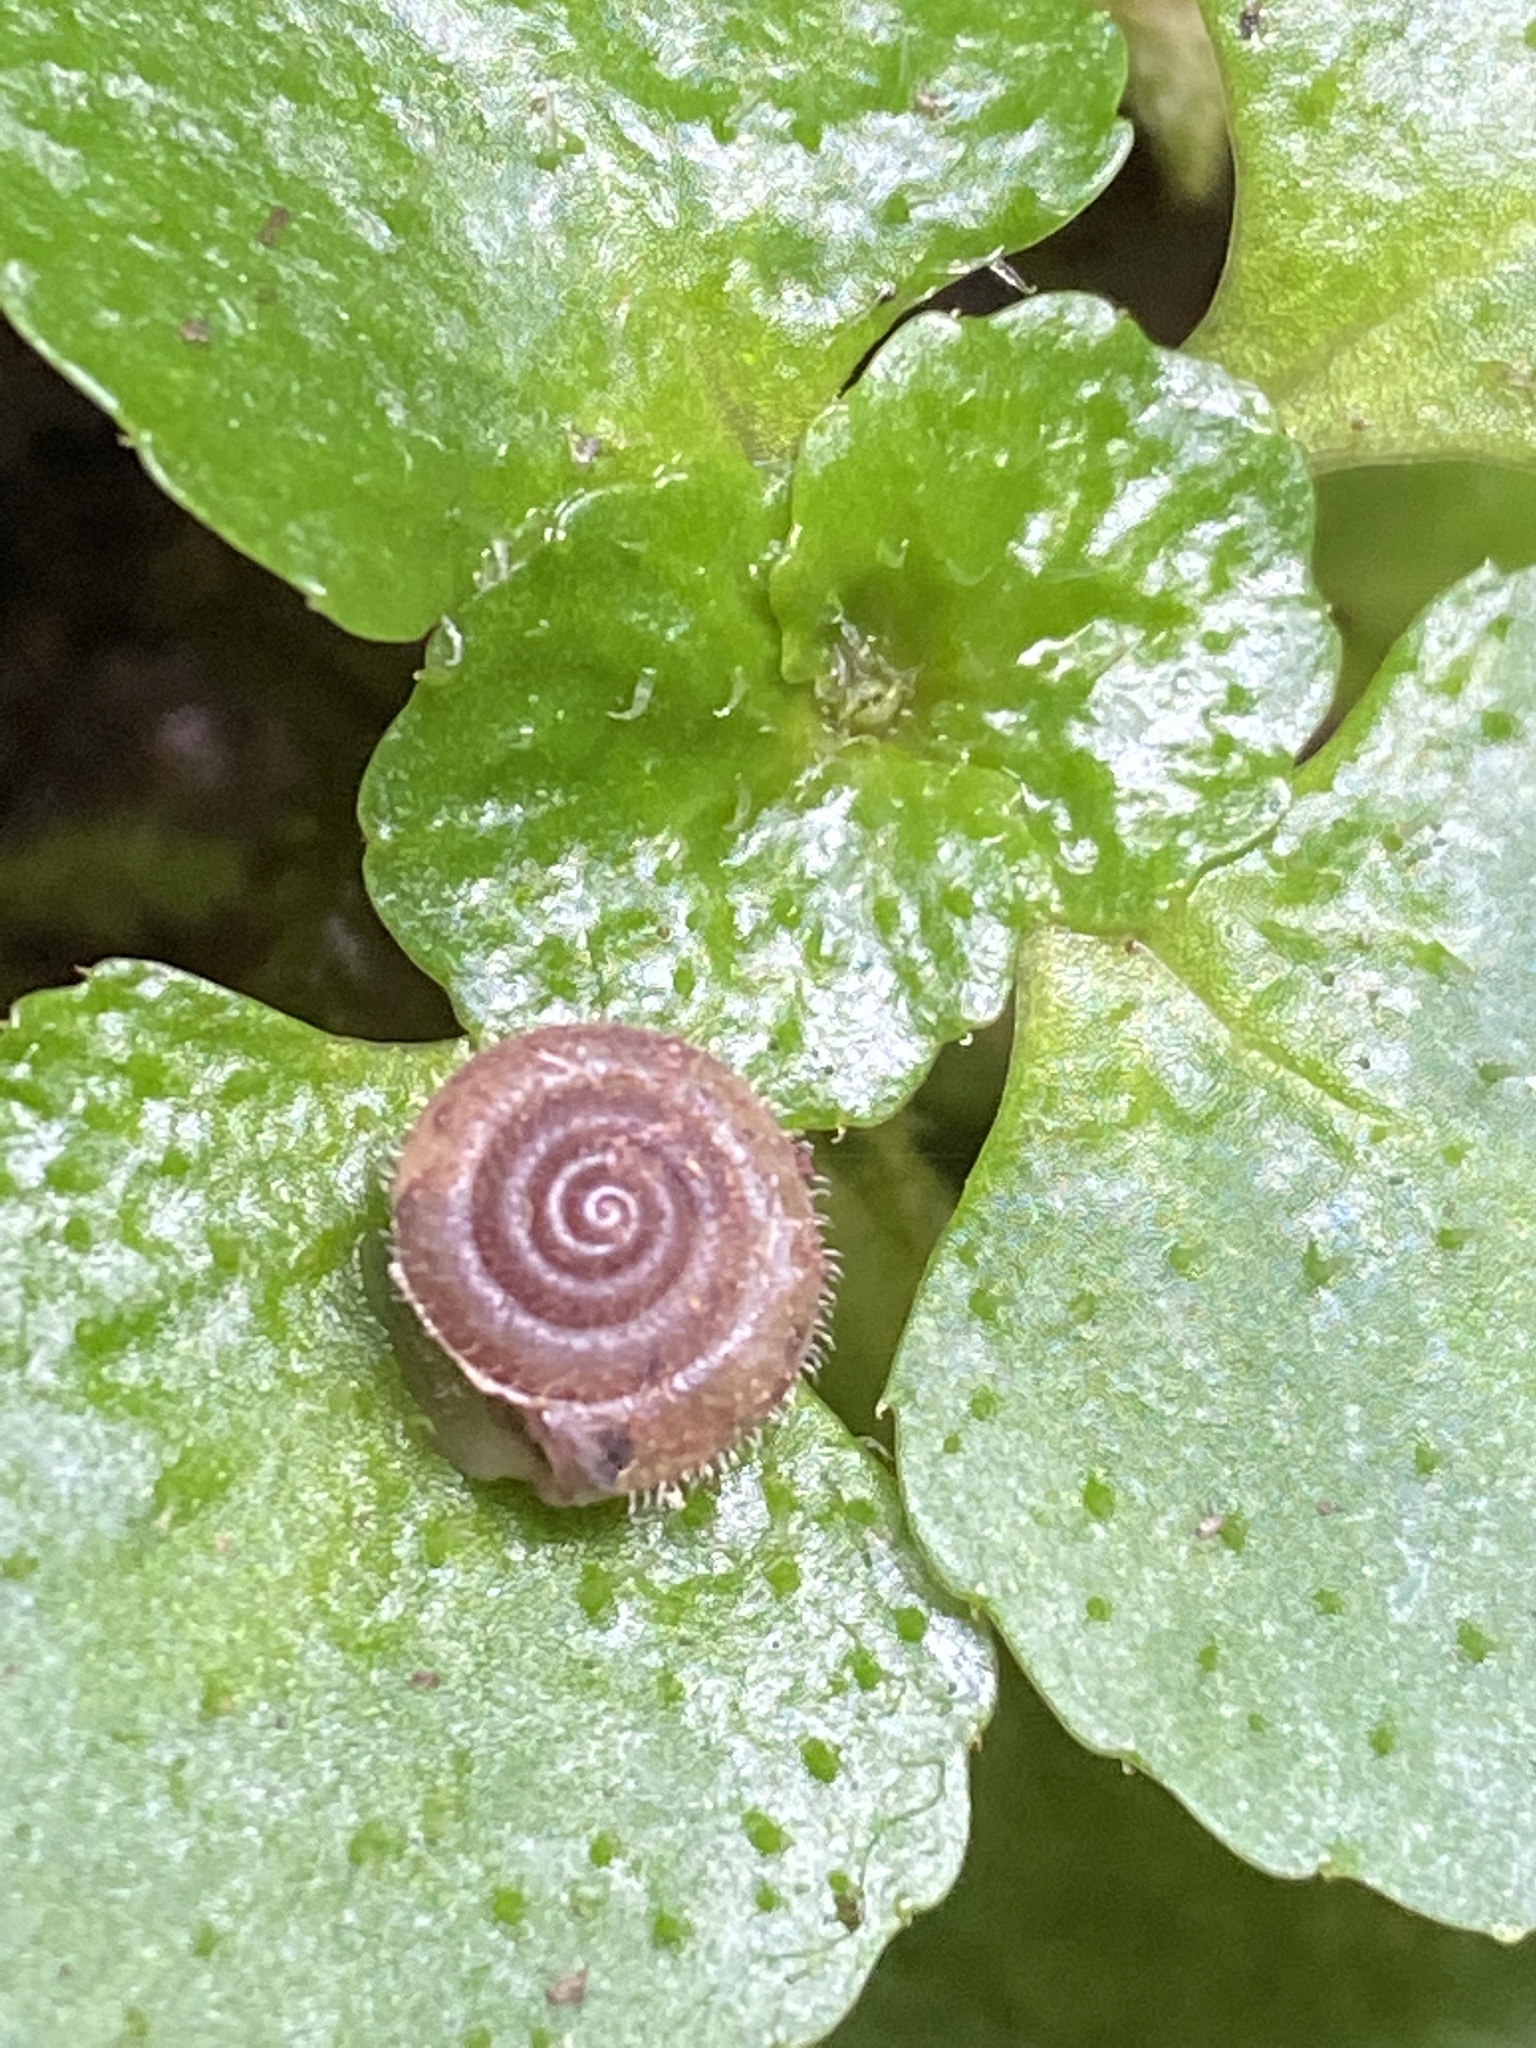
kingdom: Animalia
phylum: Mollusca
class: Gastropoda
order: Stylommatophora
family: Hygromiidae
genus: Trochulus
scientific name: Trochulus hispidus
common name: Hairy snail
